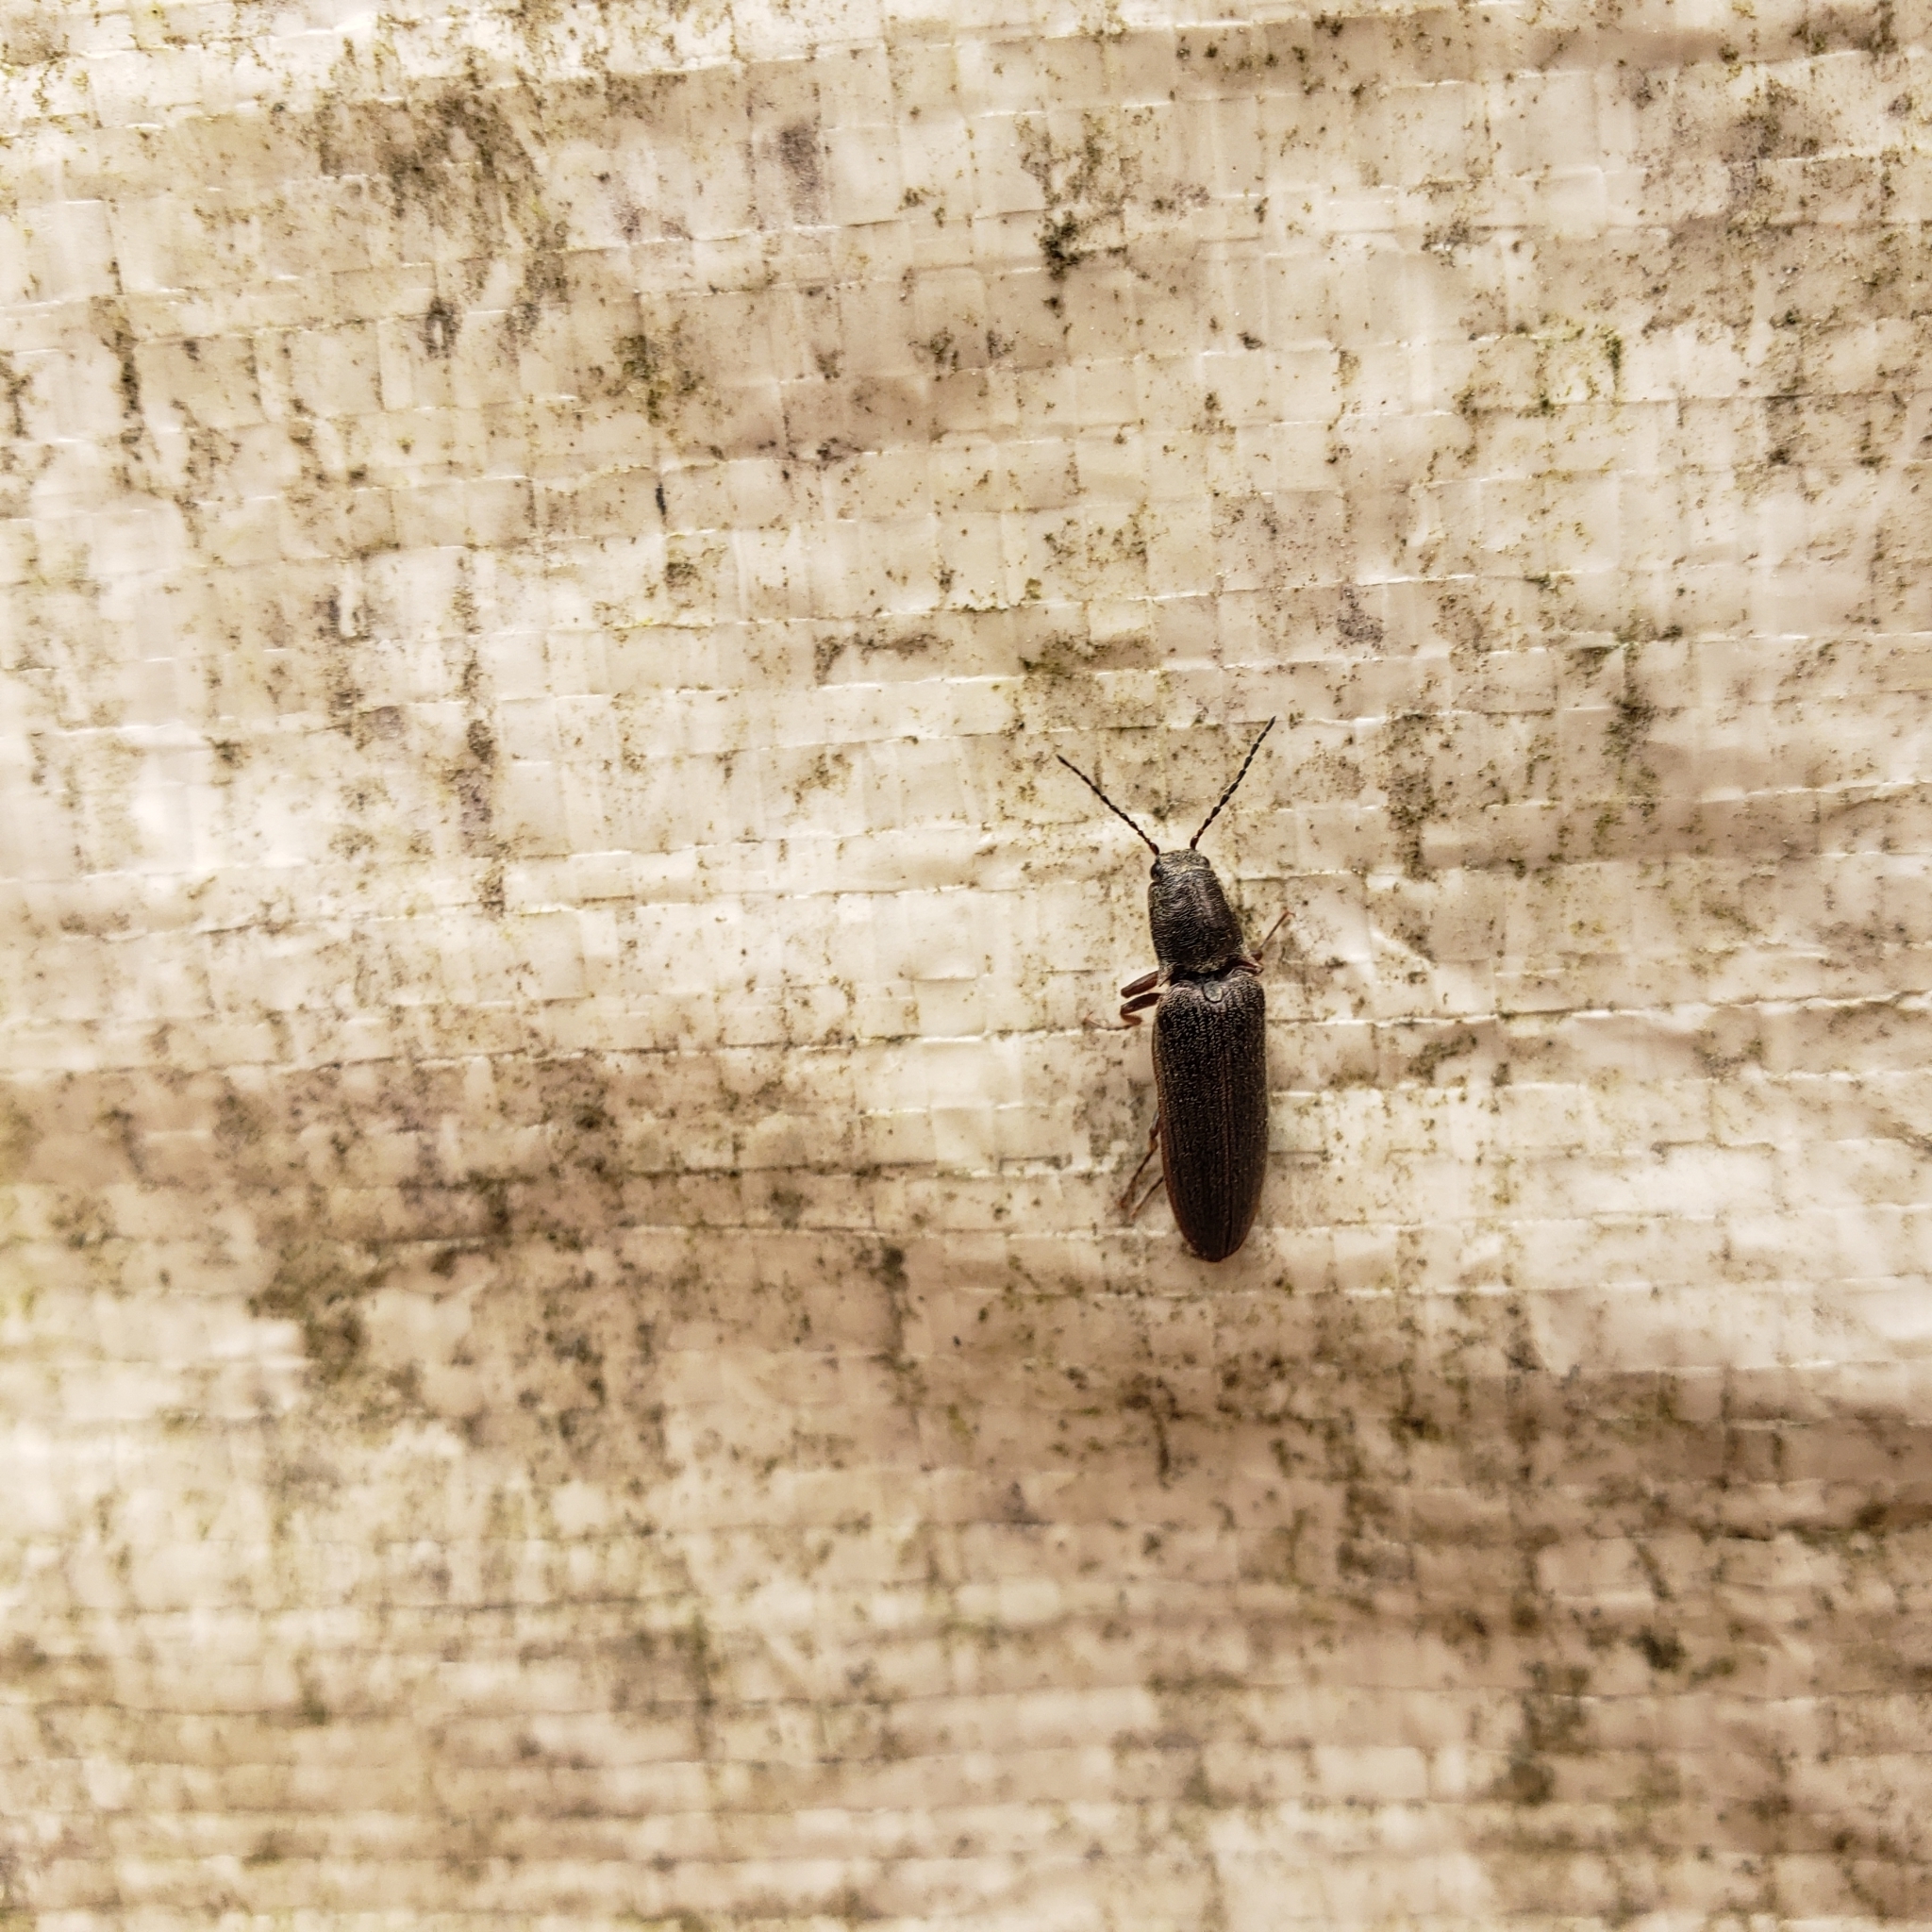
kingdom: Animalia
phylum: Arthropoda
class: Insecta
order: Coleoptera
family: Elateridae
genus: Sylvanelater
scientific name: Sylvanelater cylindriformis
